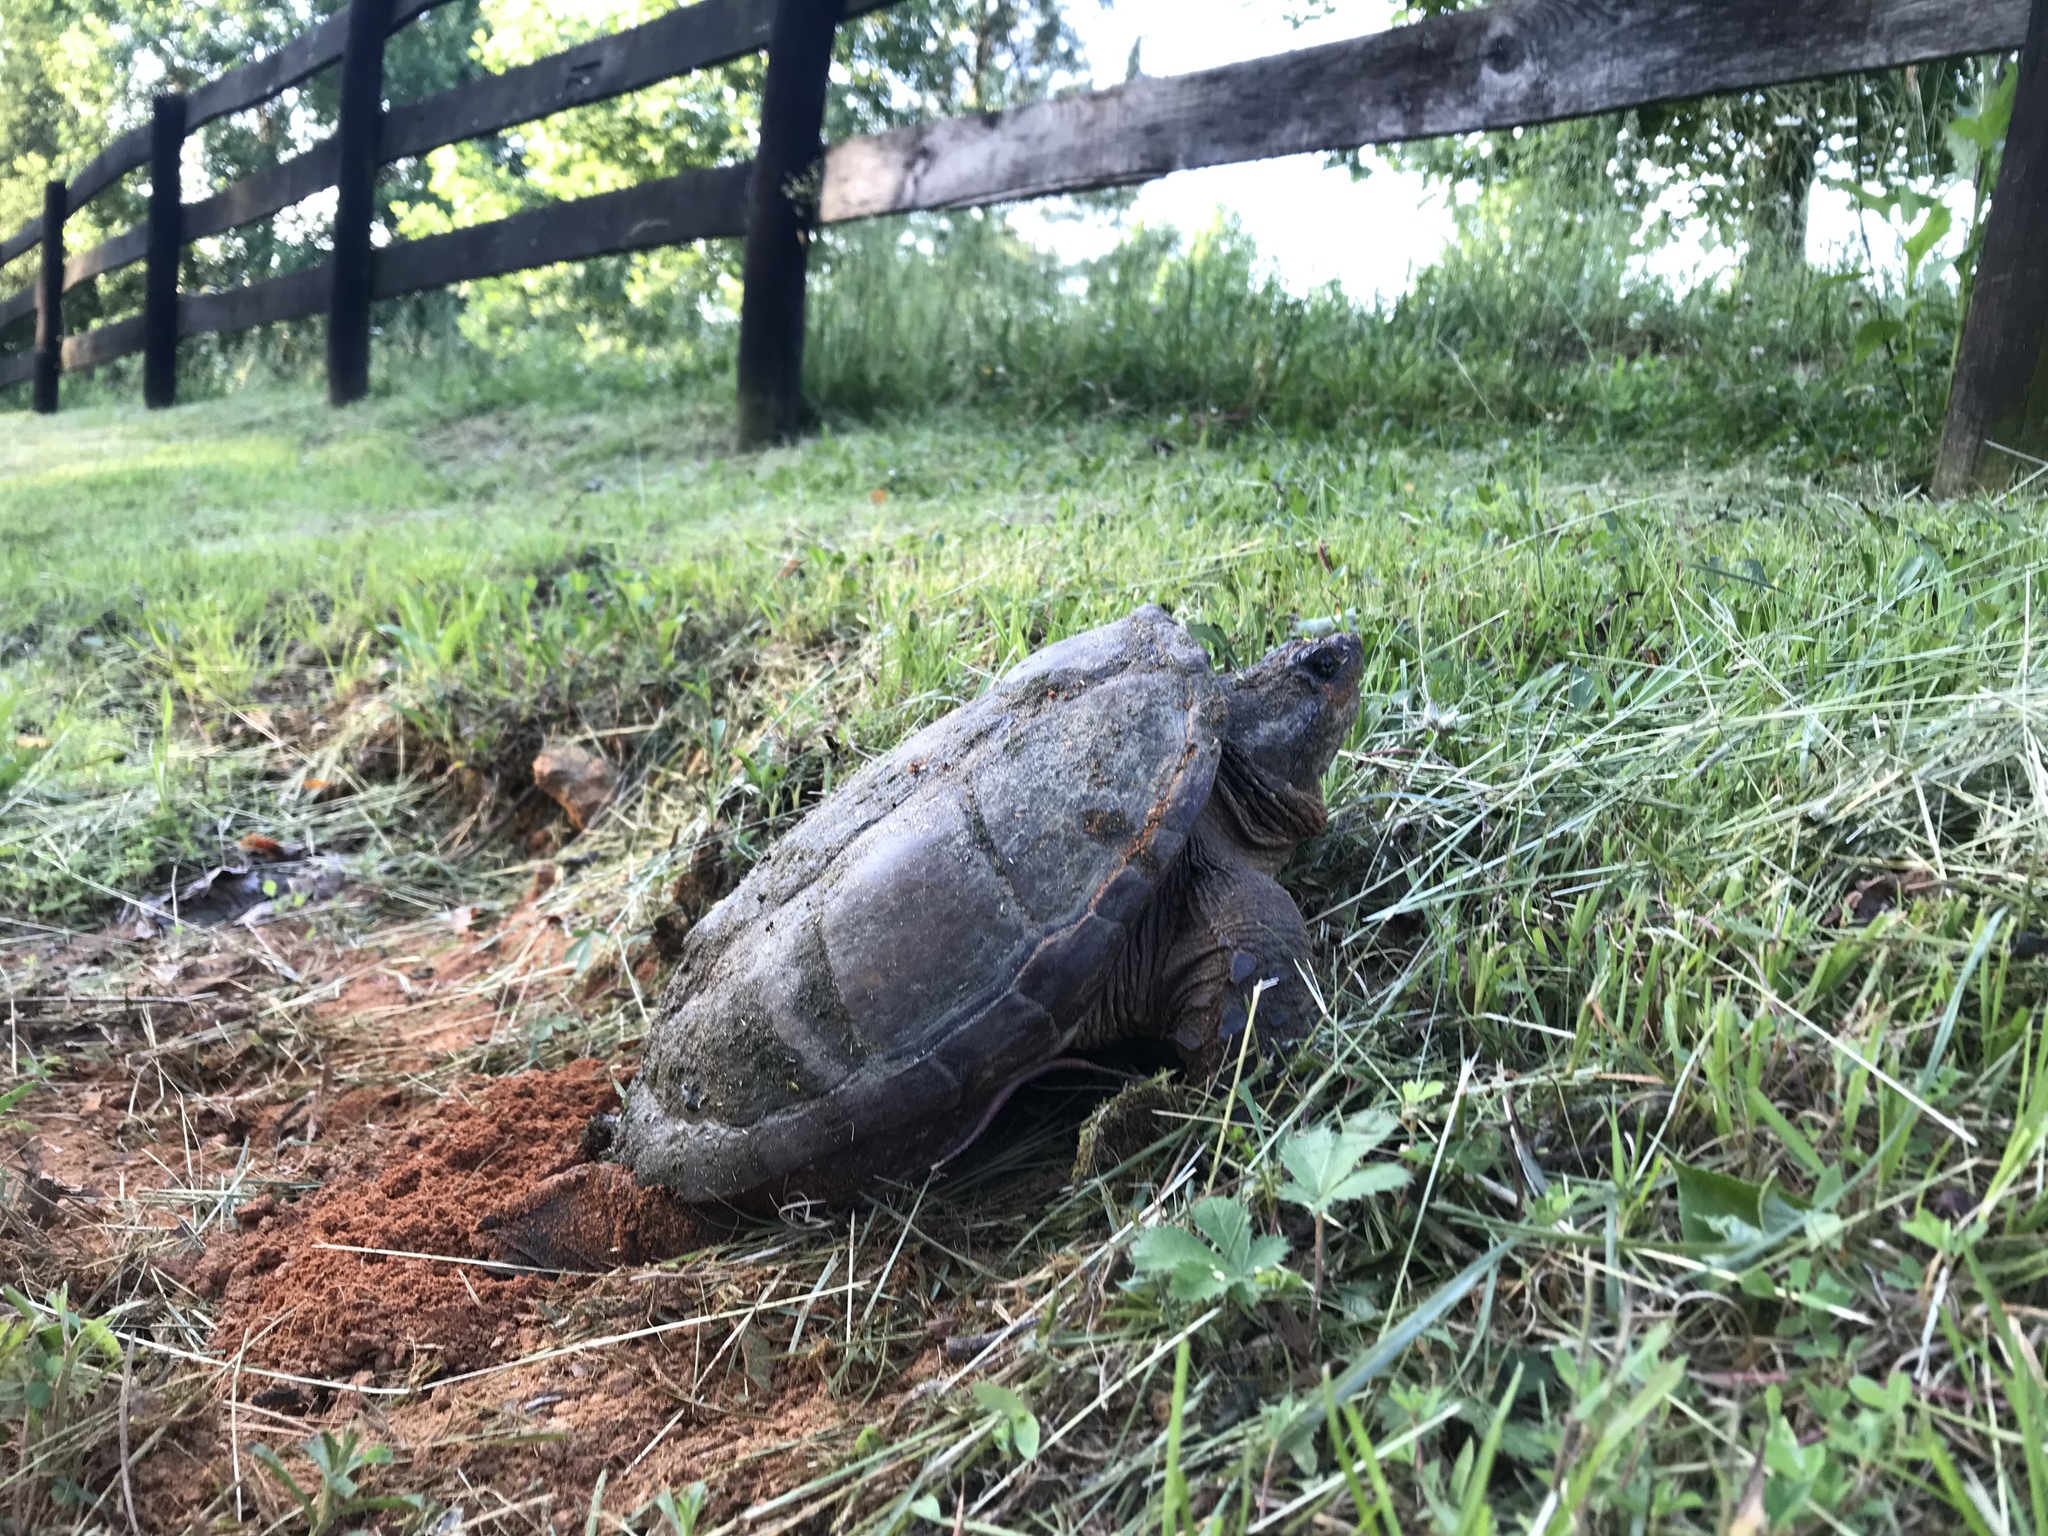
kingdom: Animalia
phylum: Chordata
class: Testudines
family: Chelydridae
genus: Chelydra
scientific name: Chelydra serpentina
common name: Common snapping turtle
